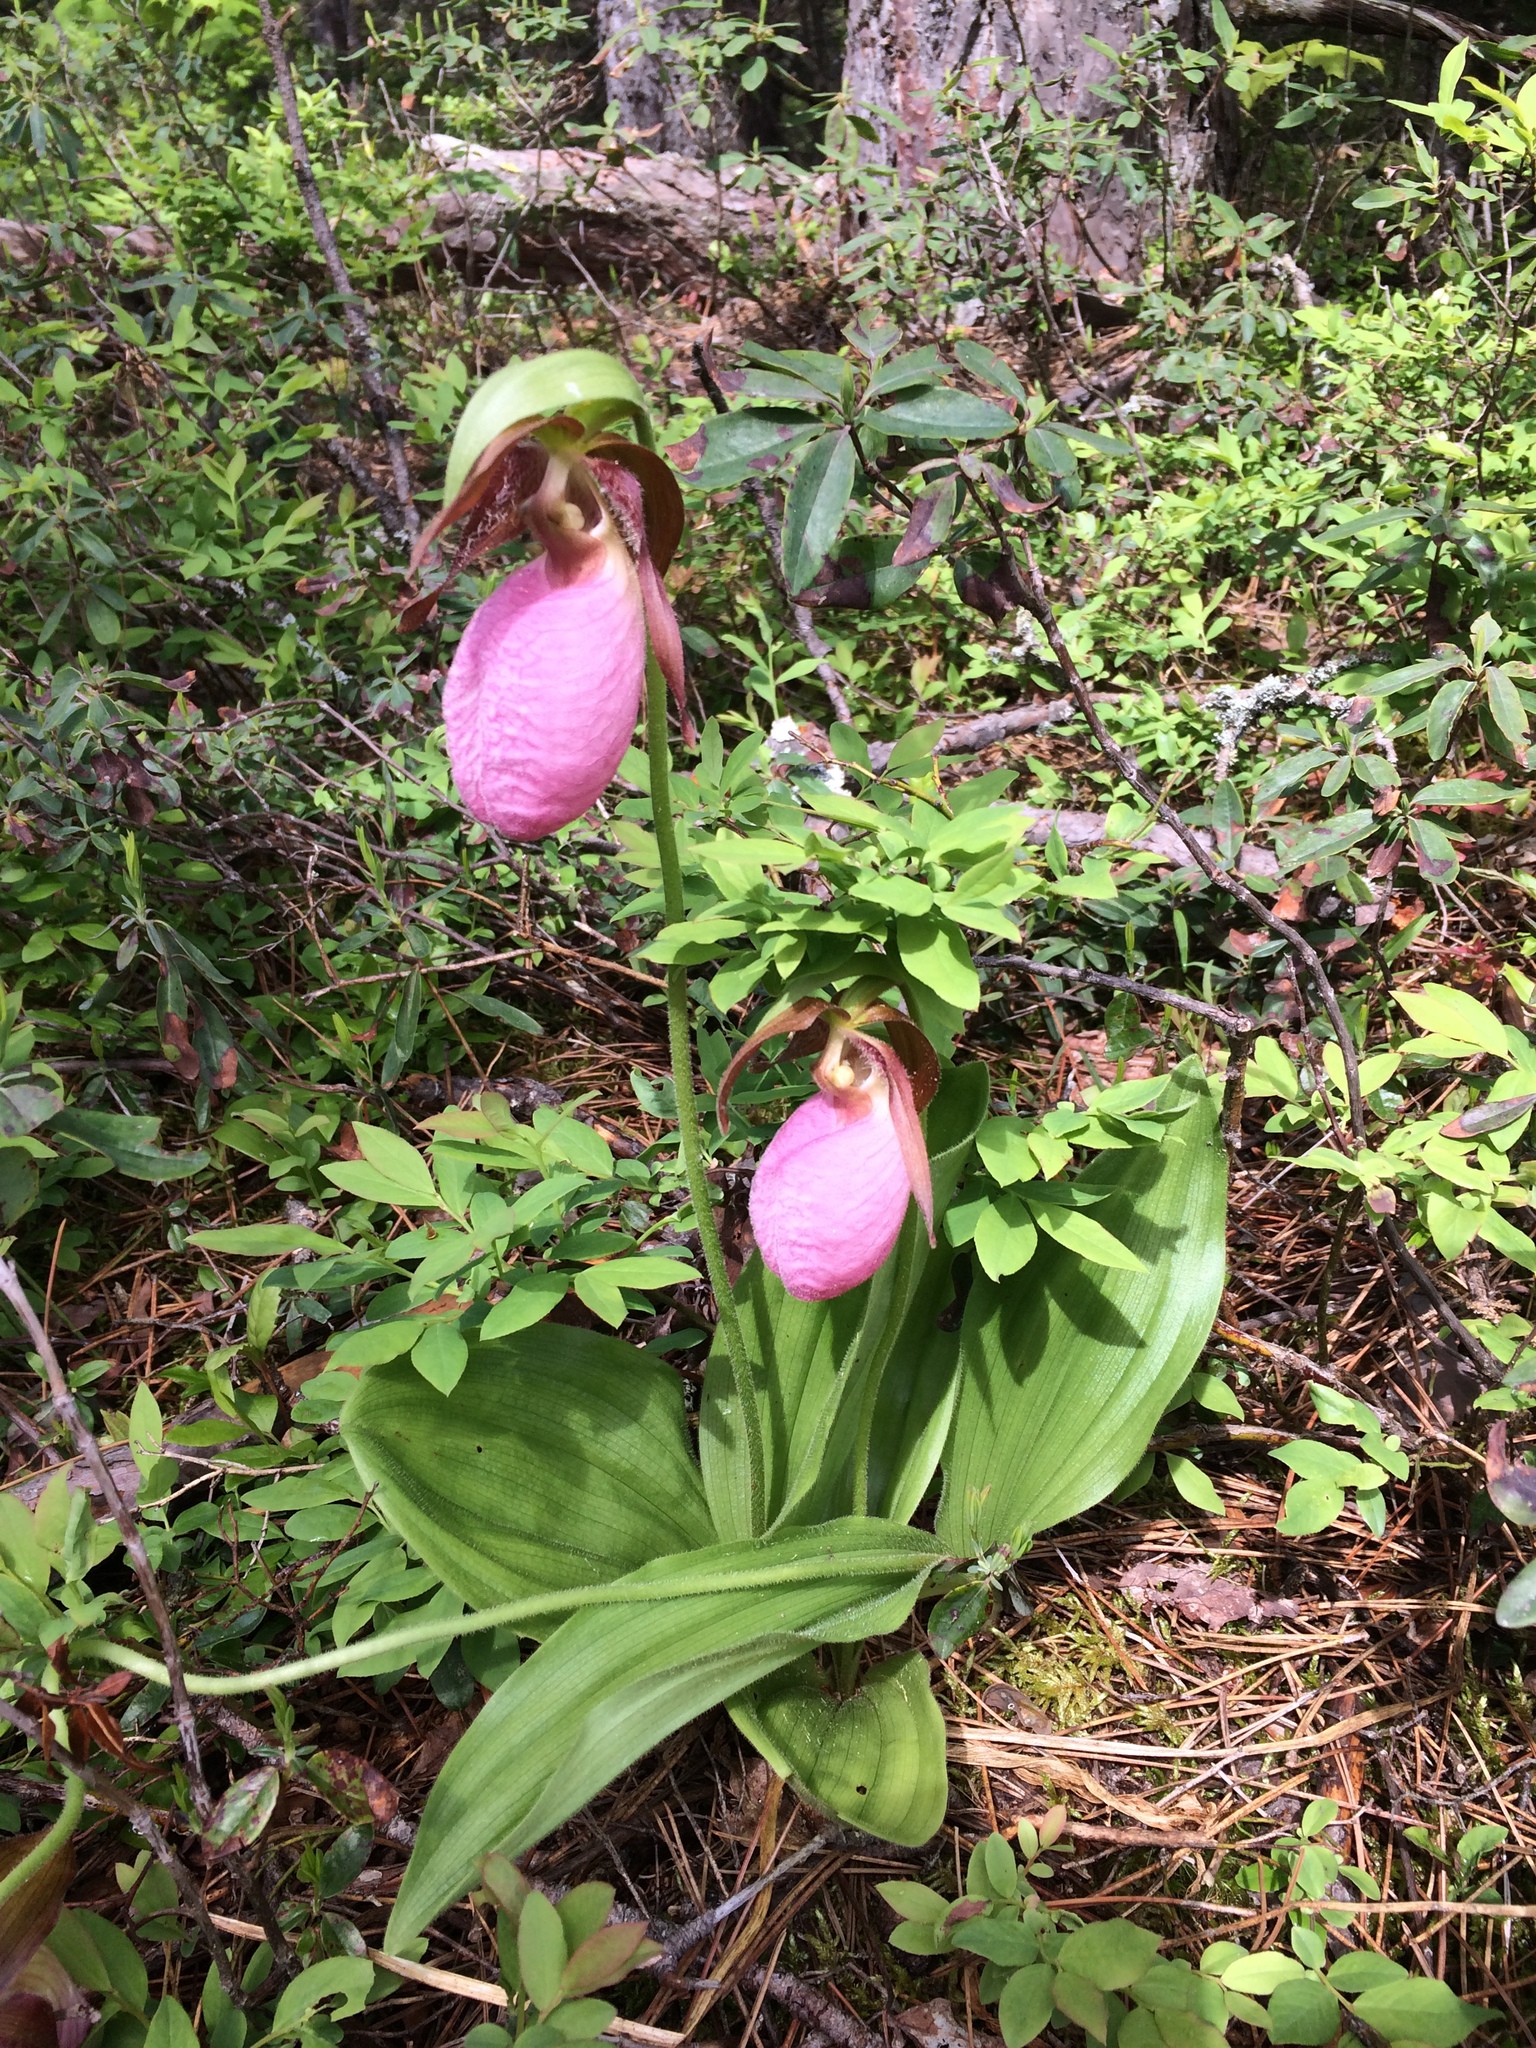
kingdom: Plantae
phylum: Tracheophyta
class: Liliopsida
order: Asparagales
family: Orchidaceae
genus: Cypripedium
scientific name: Cypripedium acaule
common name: Pink lady's-slipper
